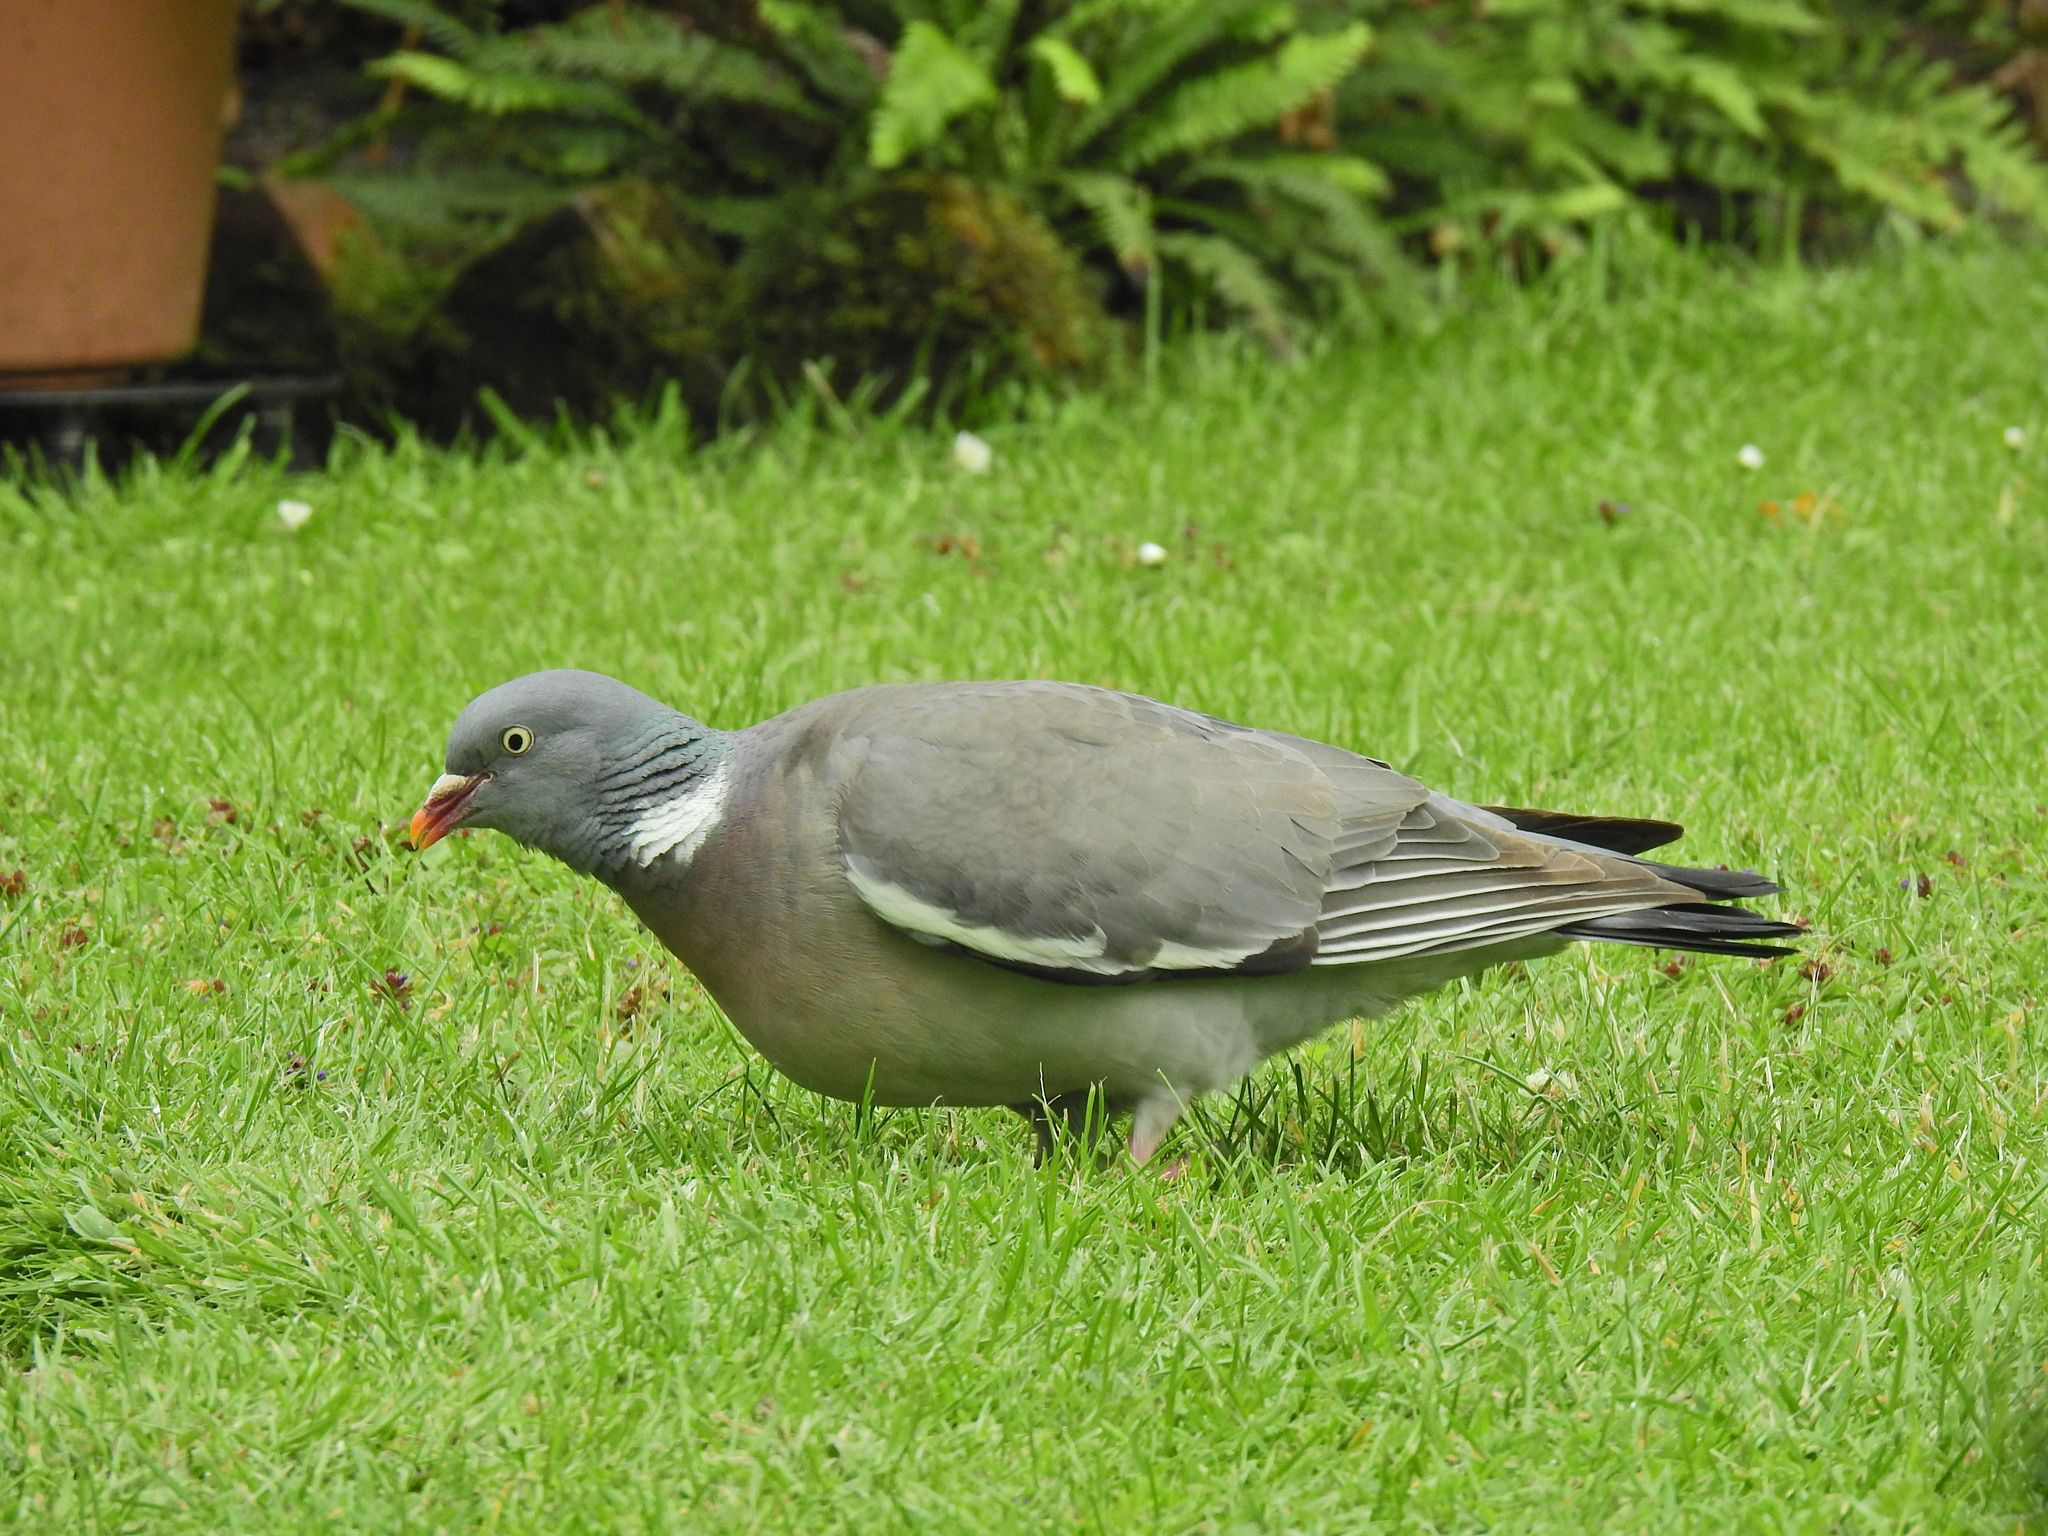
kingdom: Animalia
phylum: Chordata
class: Aves
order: Columbiformes
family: Columbidae
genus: Columba
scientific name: Columba palumbus
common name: Common wood pigeon
